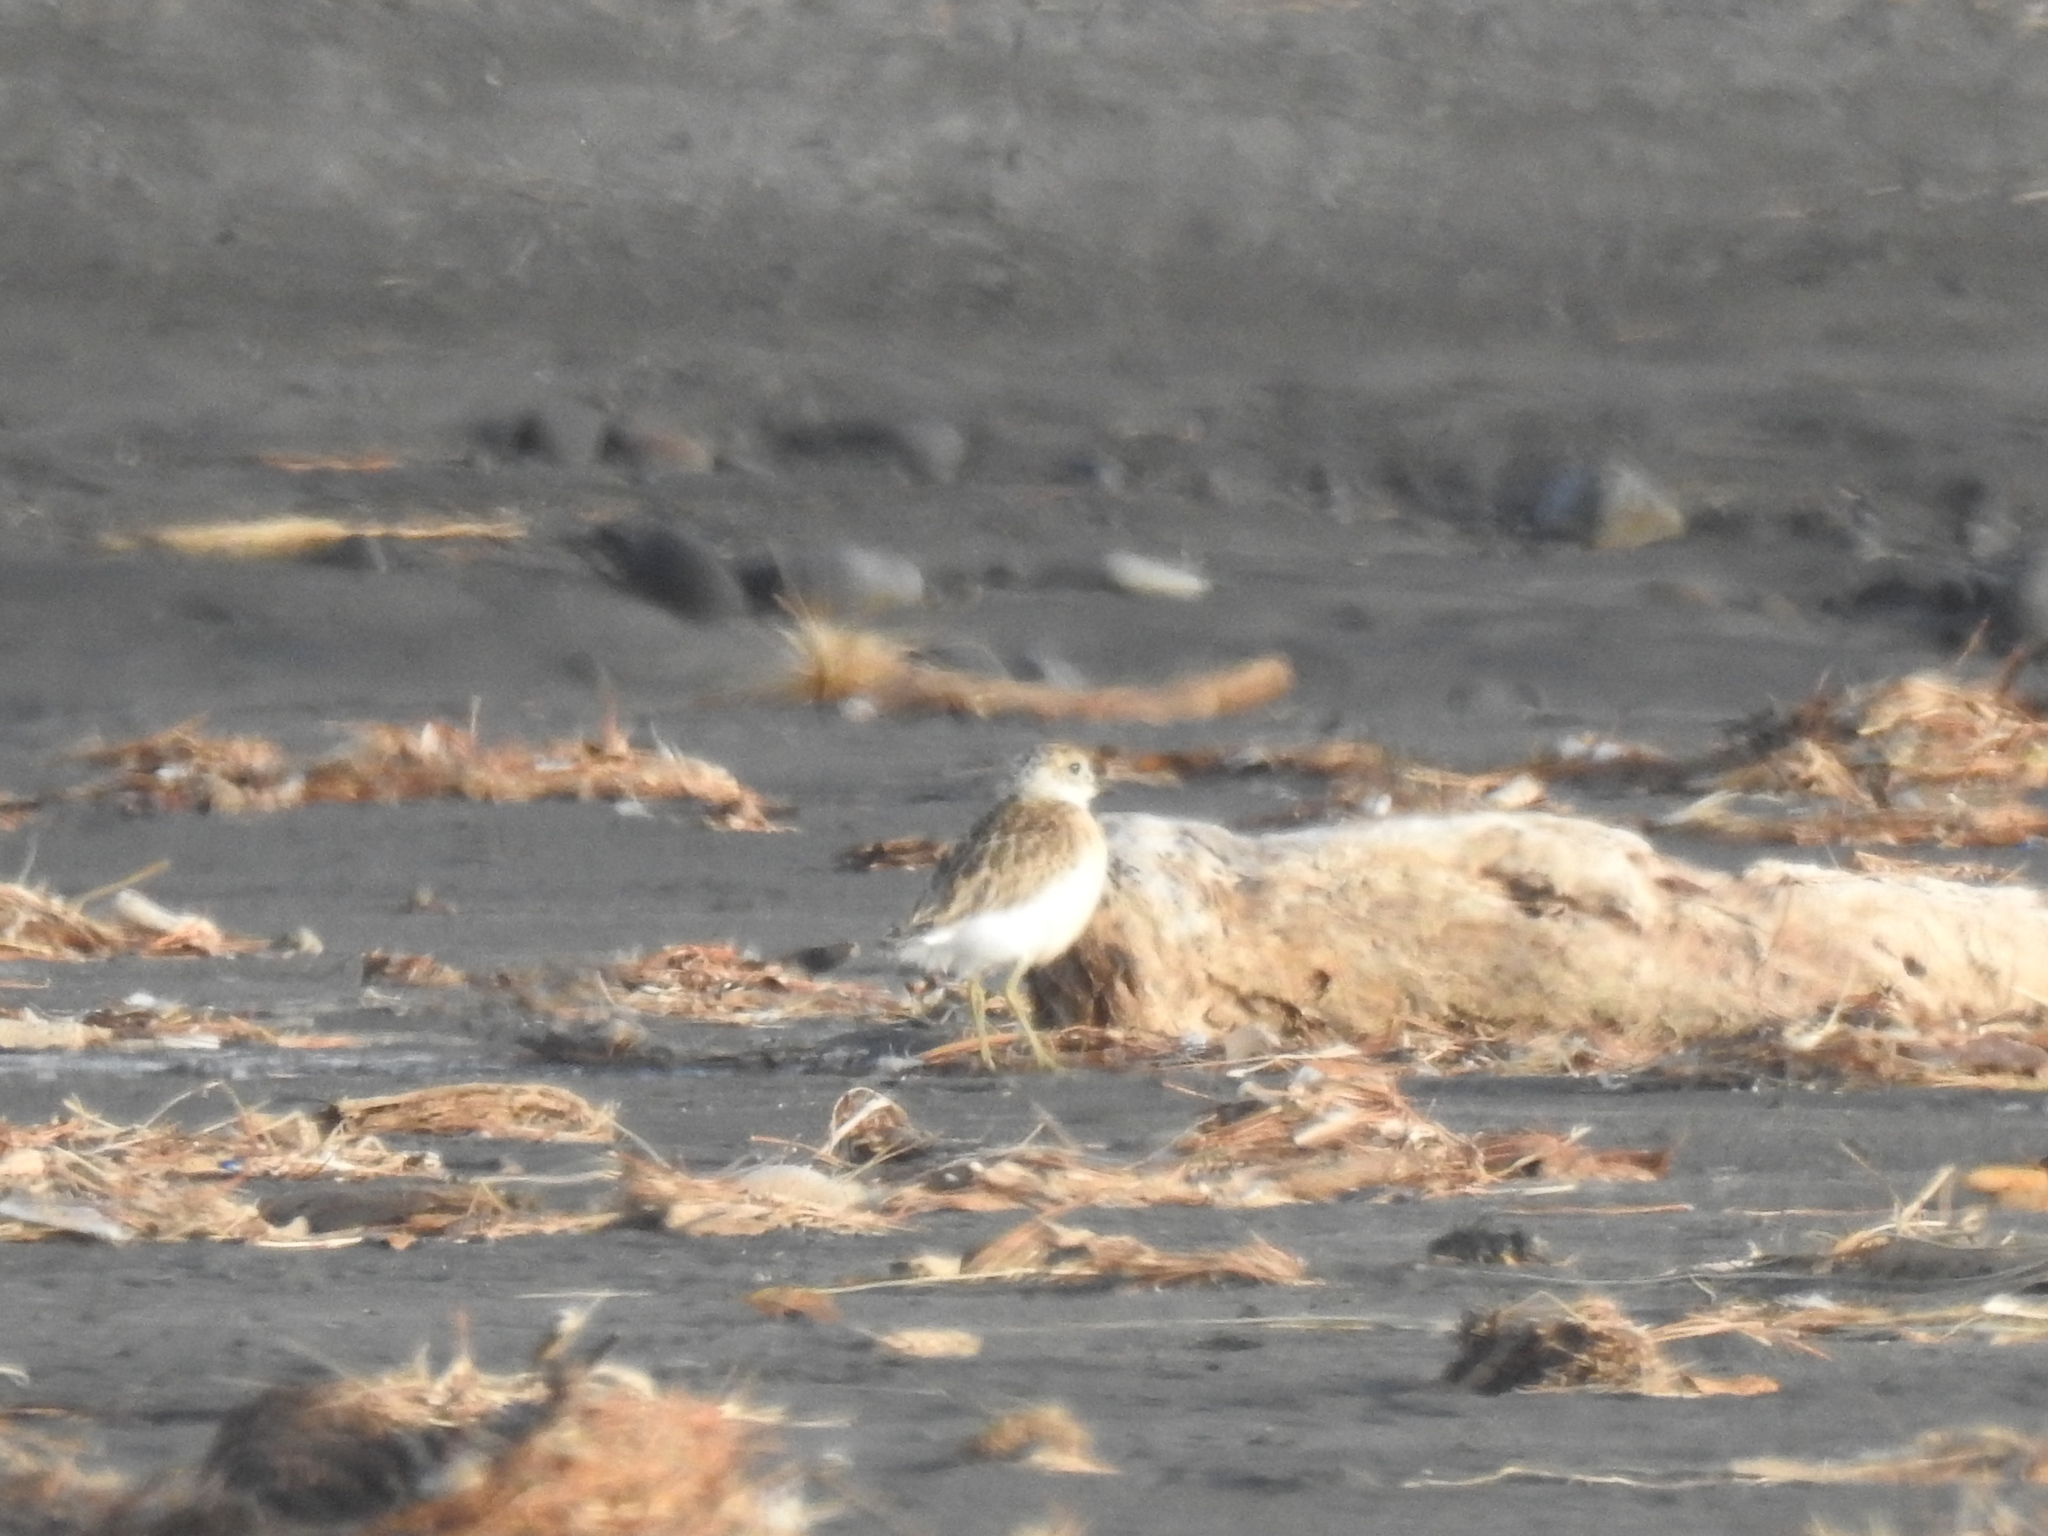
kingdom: Animalia
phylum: Chordata
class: Aves
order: Charadriiformes
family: Charadriidae
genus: Anarhynchus
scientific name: Anarhynchus
